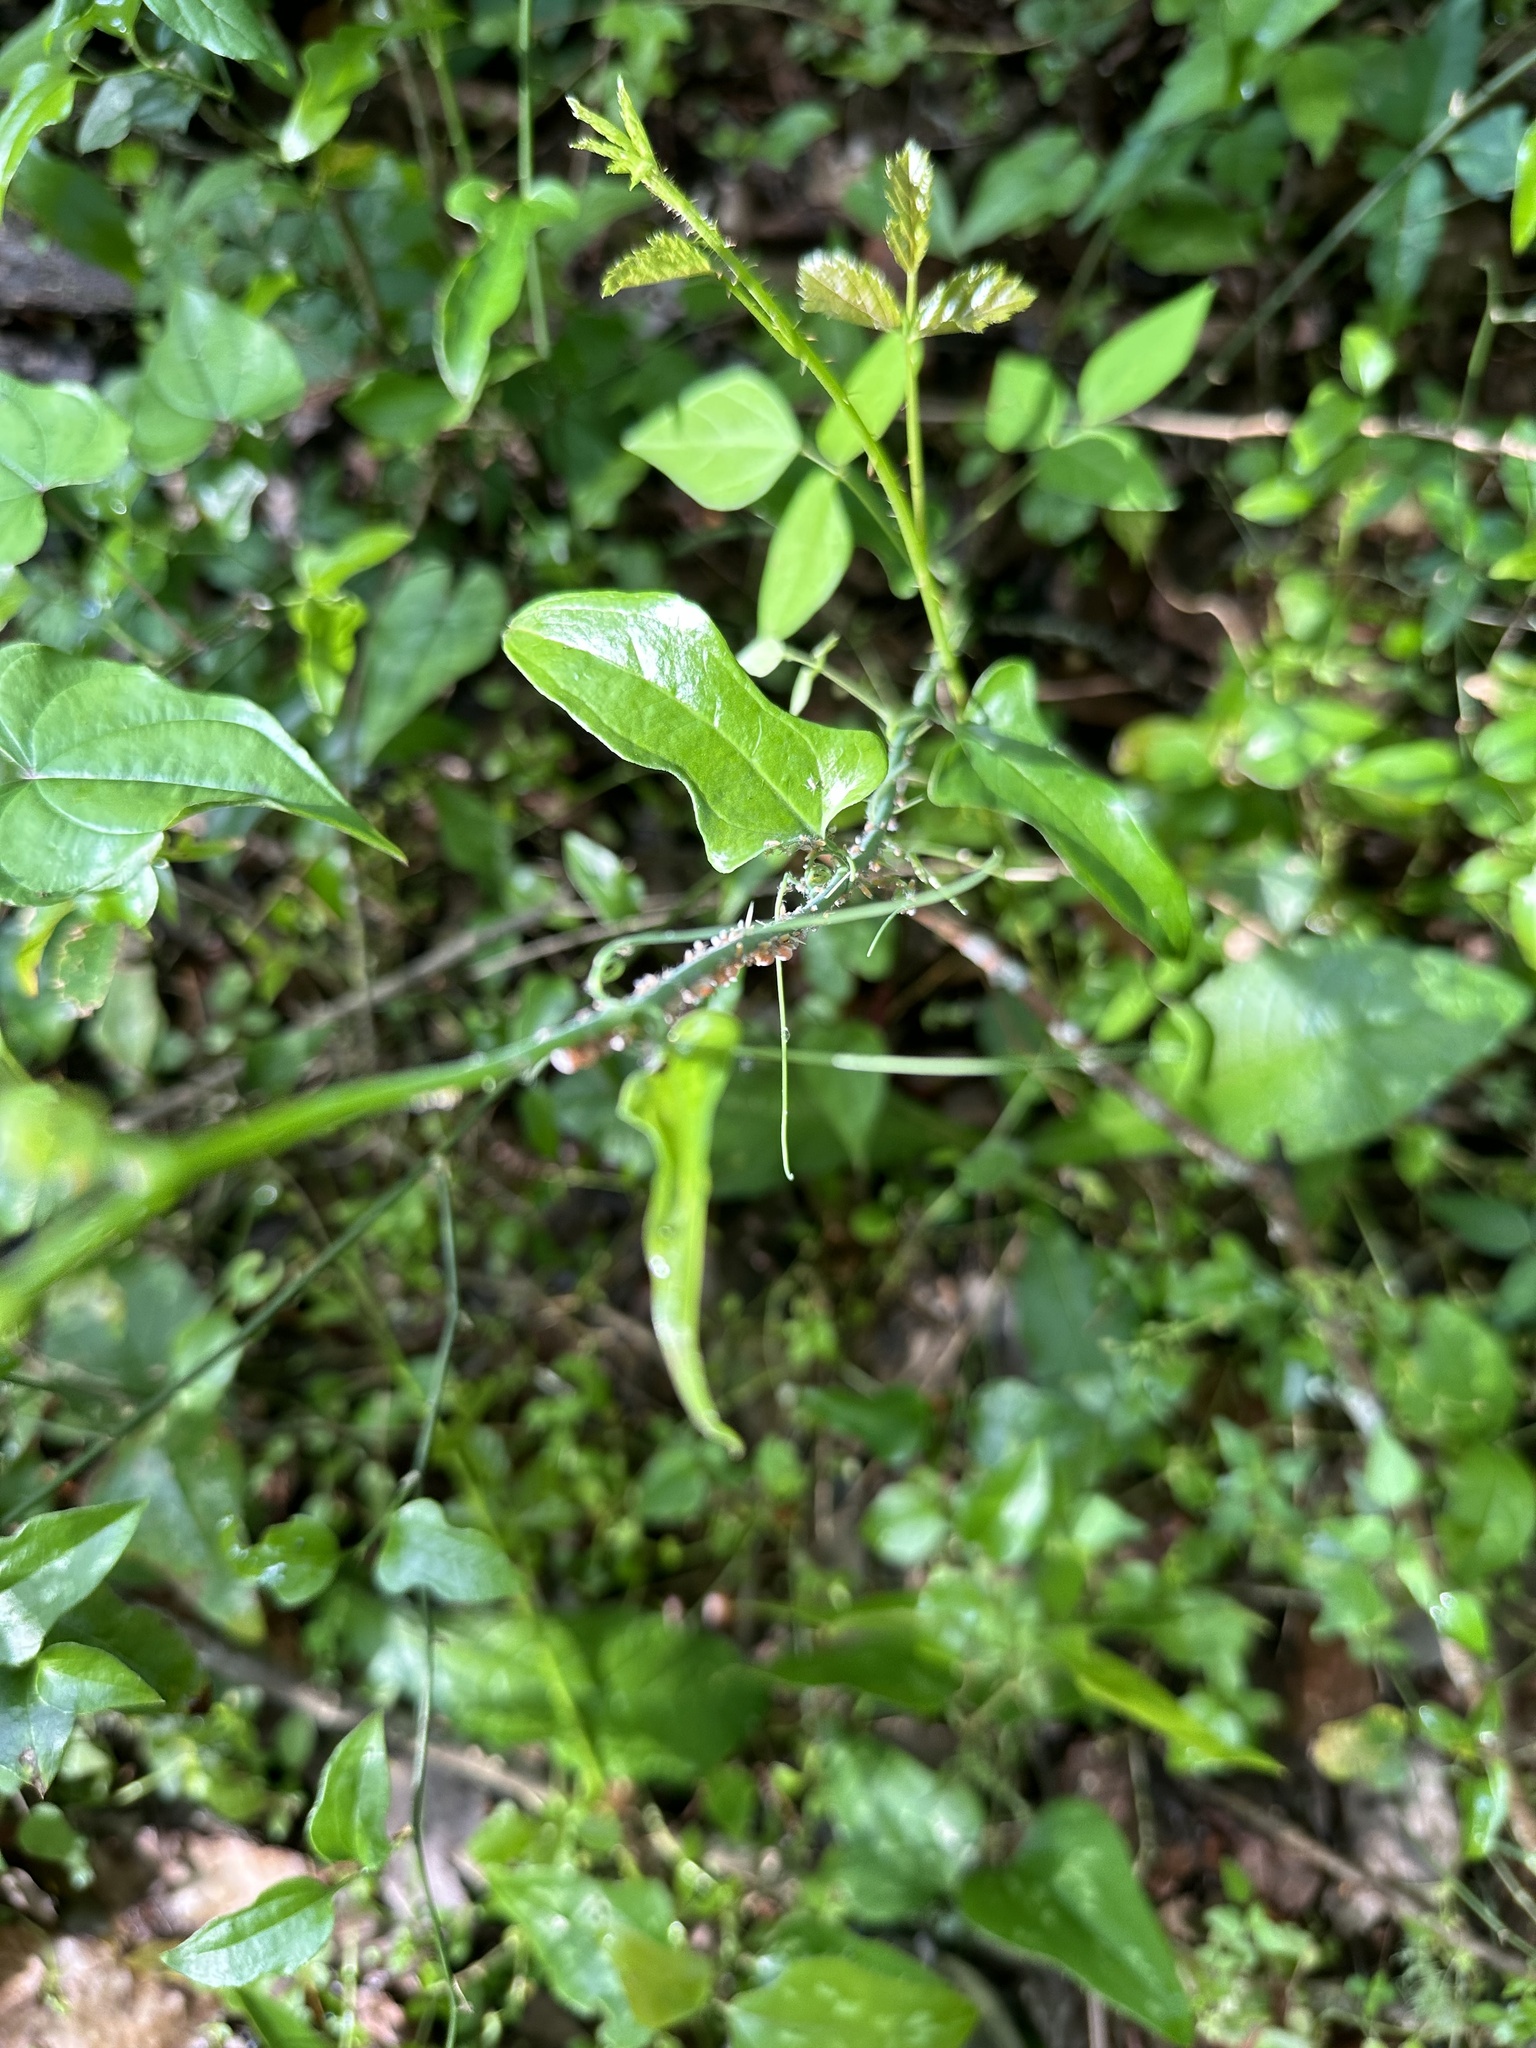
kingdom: Plantae
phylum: Tracheophyta
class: Liliopsida
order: Liliales
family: Smilacaceae
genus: Smilax
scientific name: Smilax tamnoides
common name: Hellfetter
